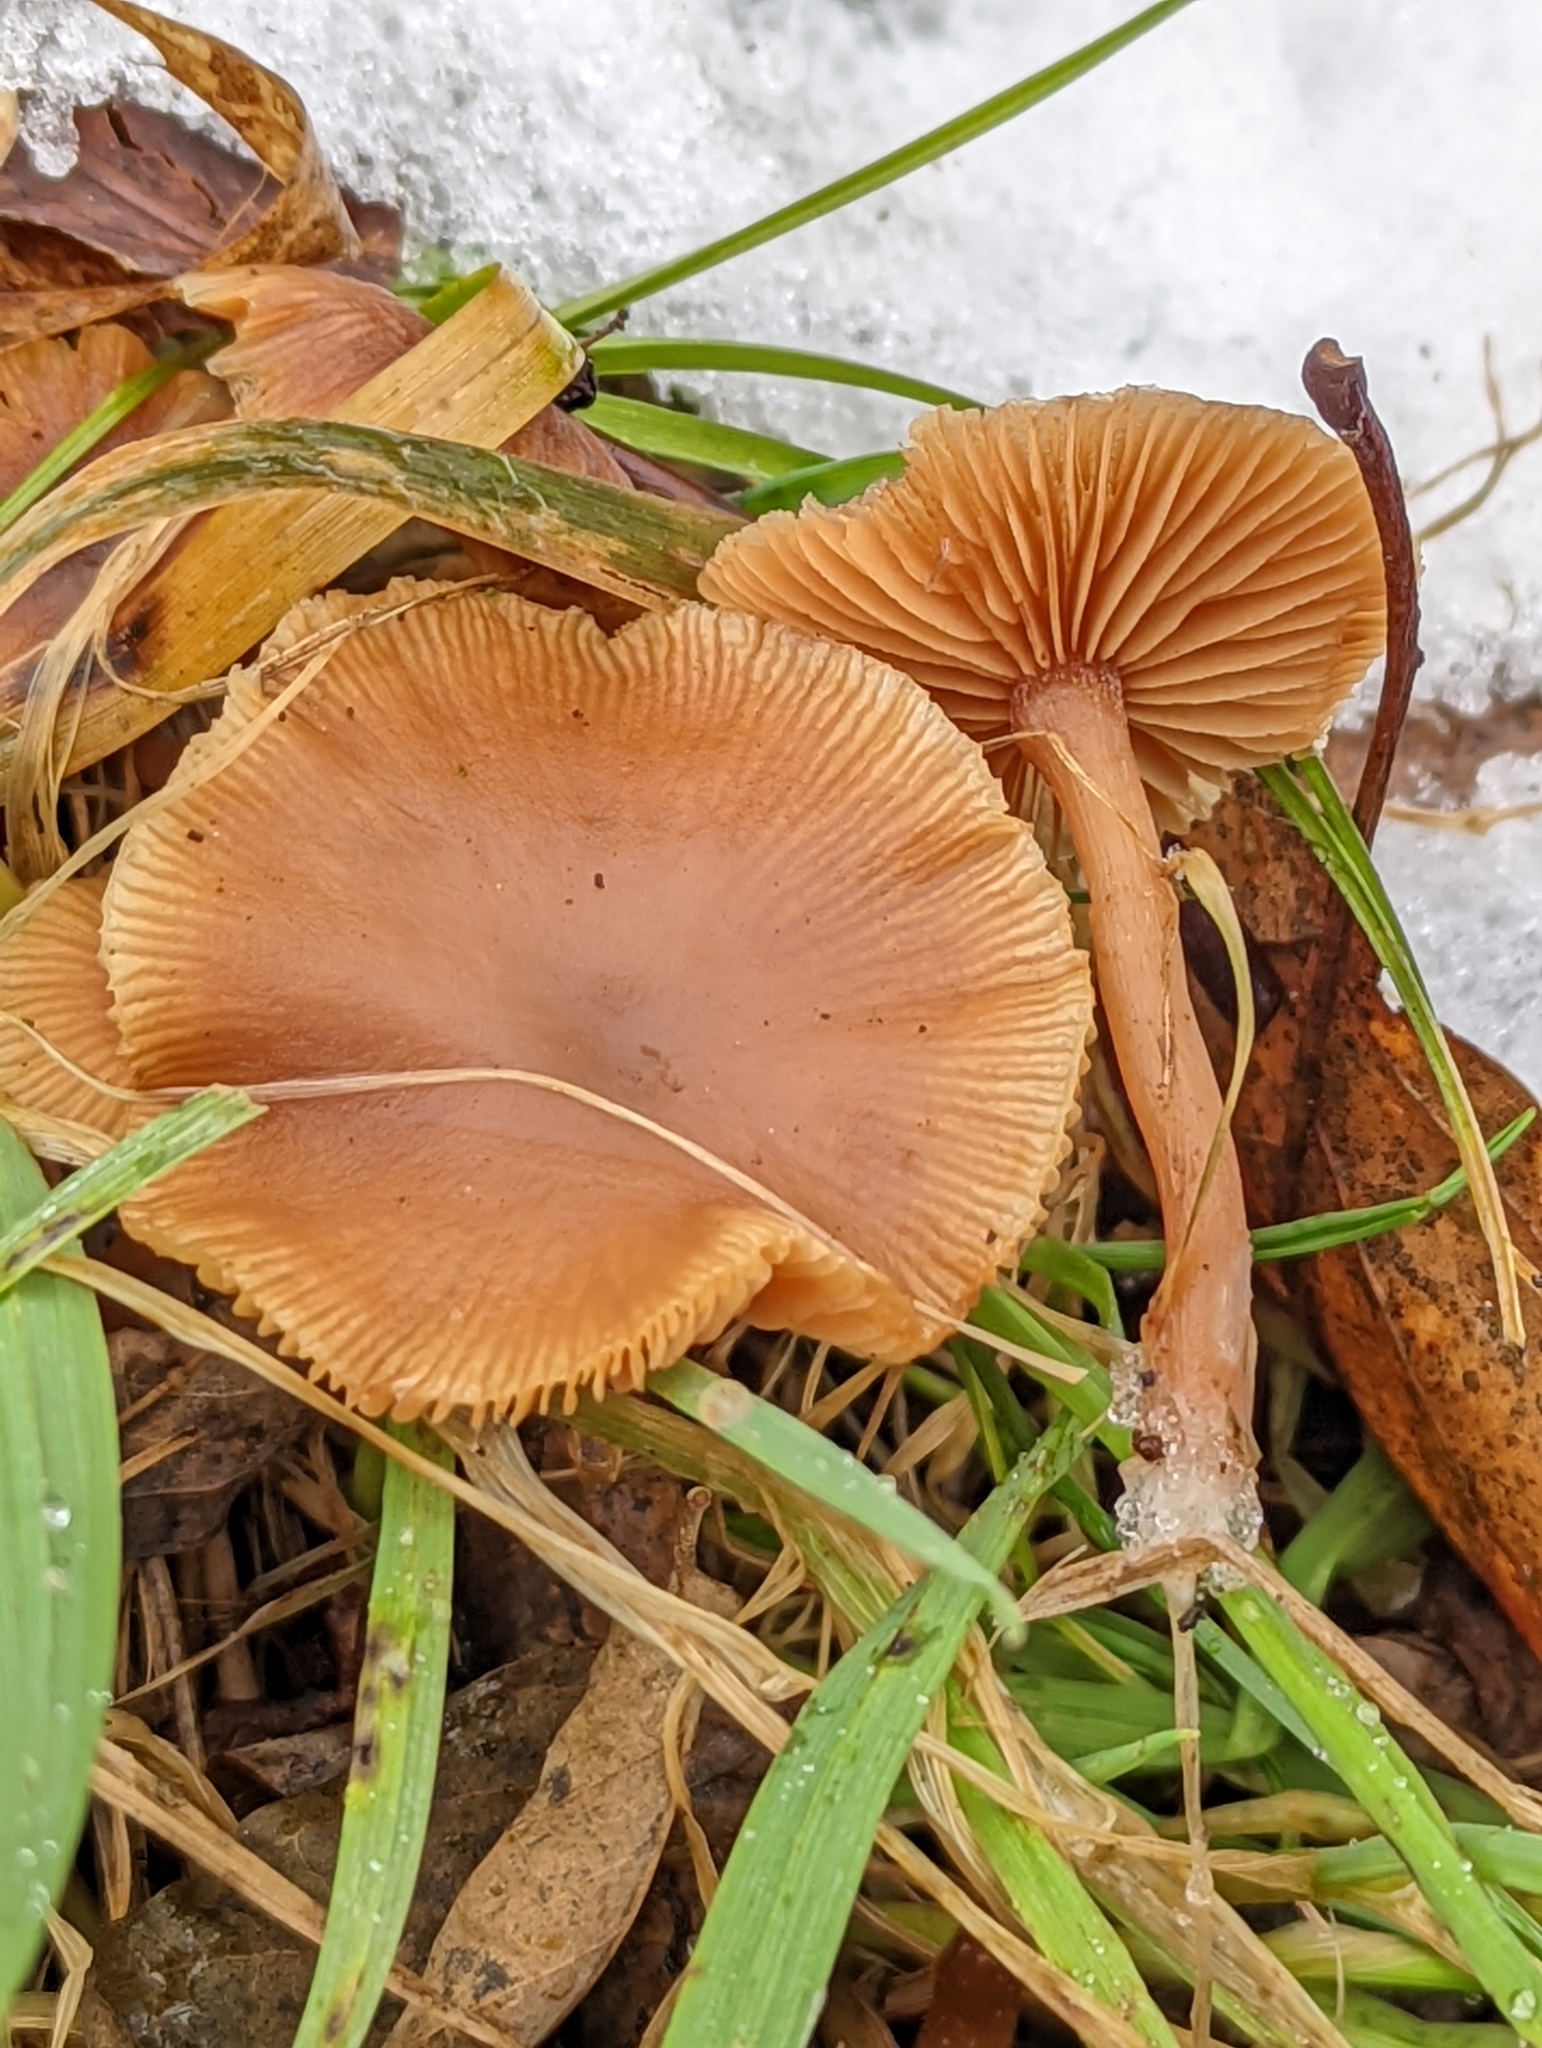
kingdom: Fungi
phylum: Basidiomycota
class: Agaricomycetes
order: Agaricales
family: Tubariaceae
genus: Tubaria
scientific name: Tubaria furfuracea
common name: Scurfy twiglet
